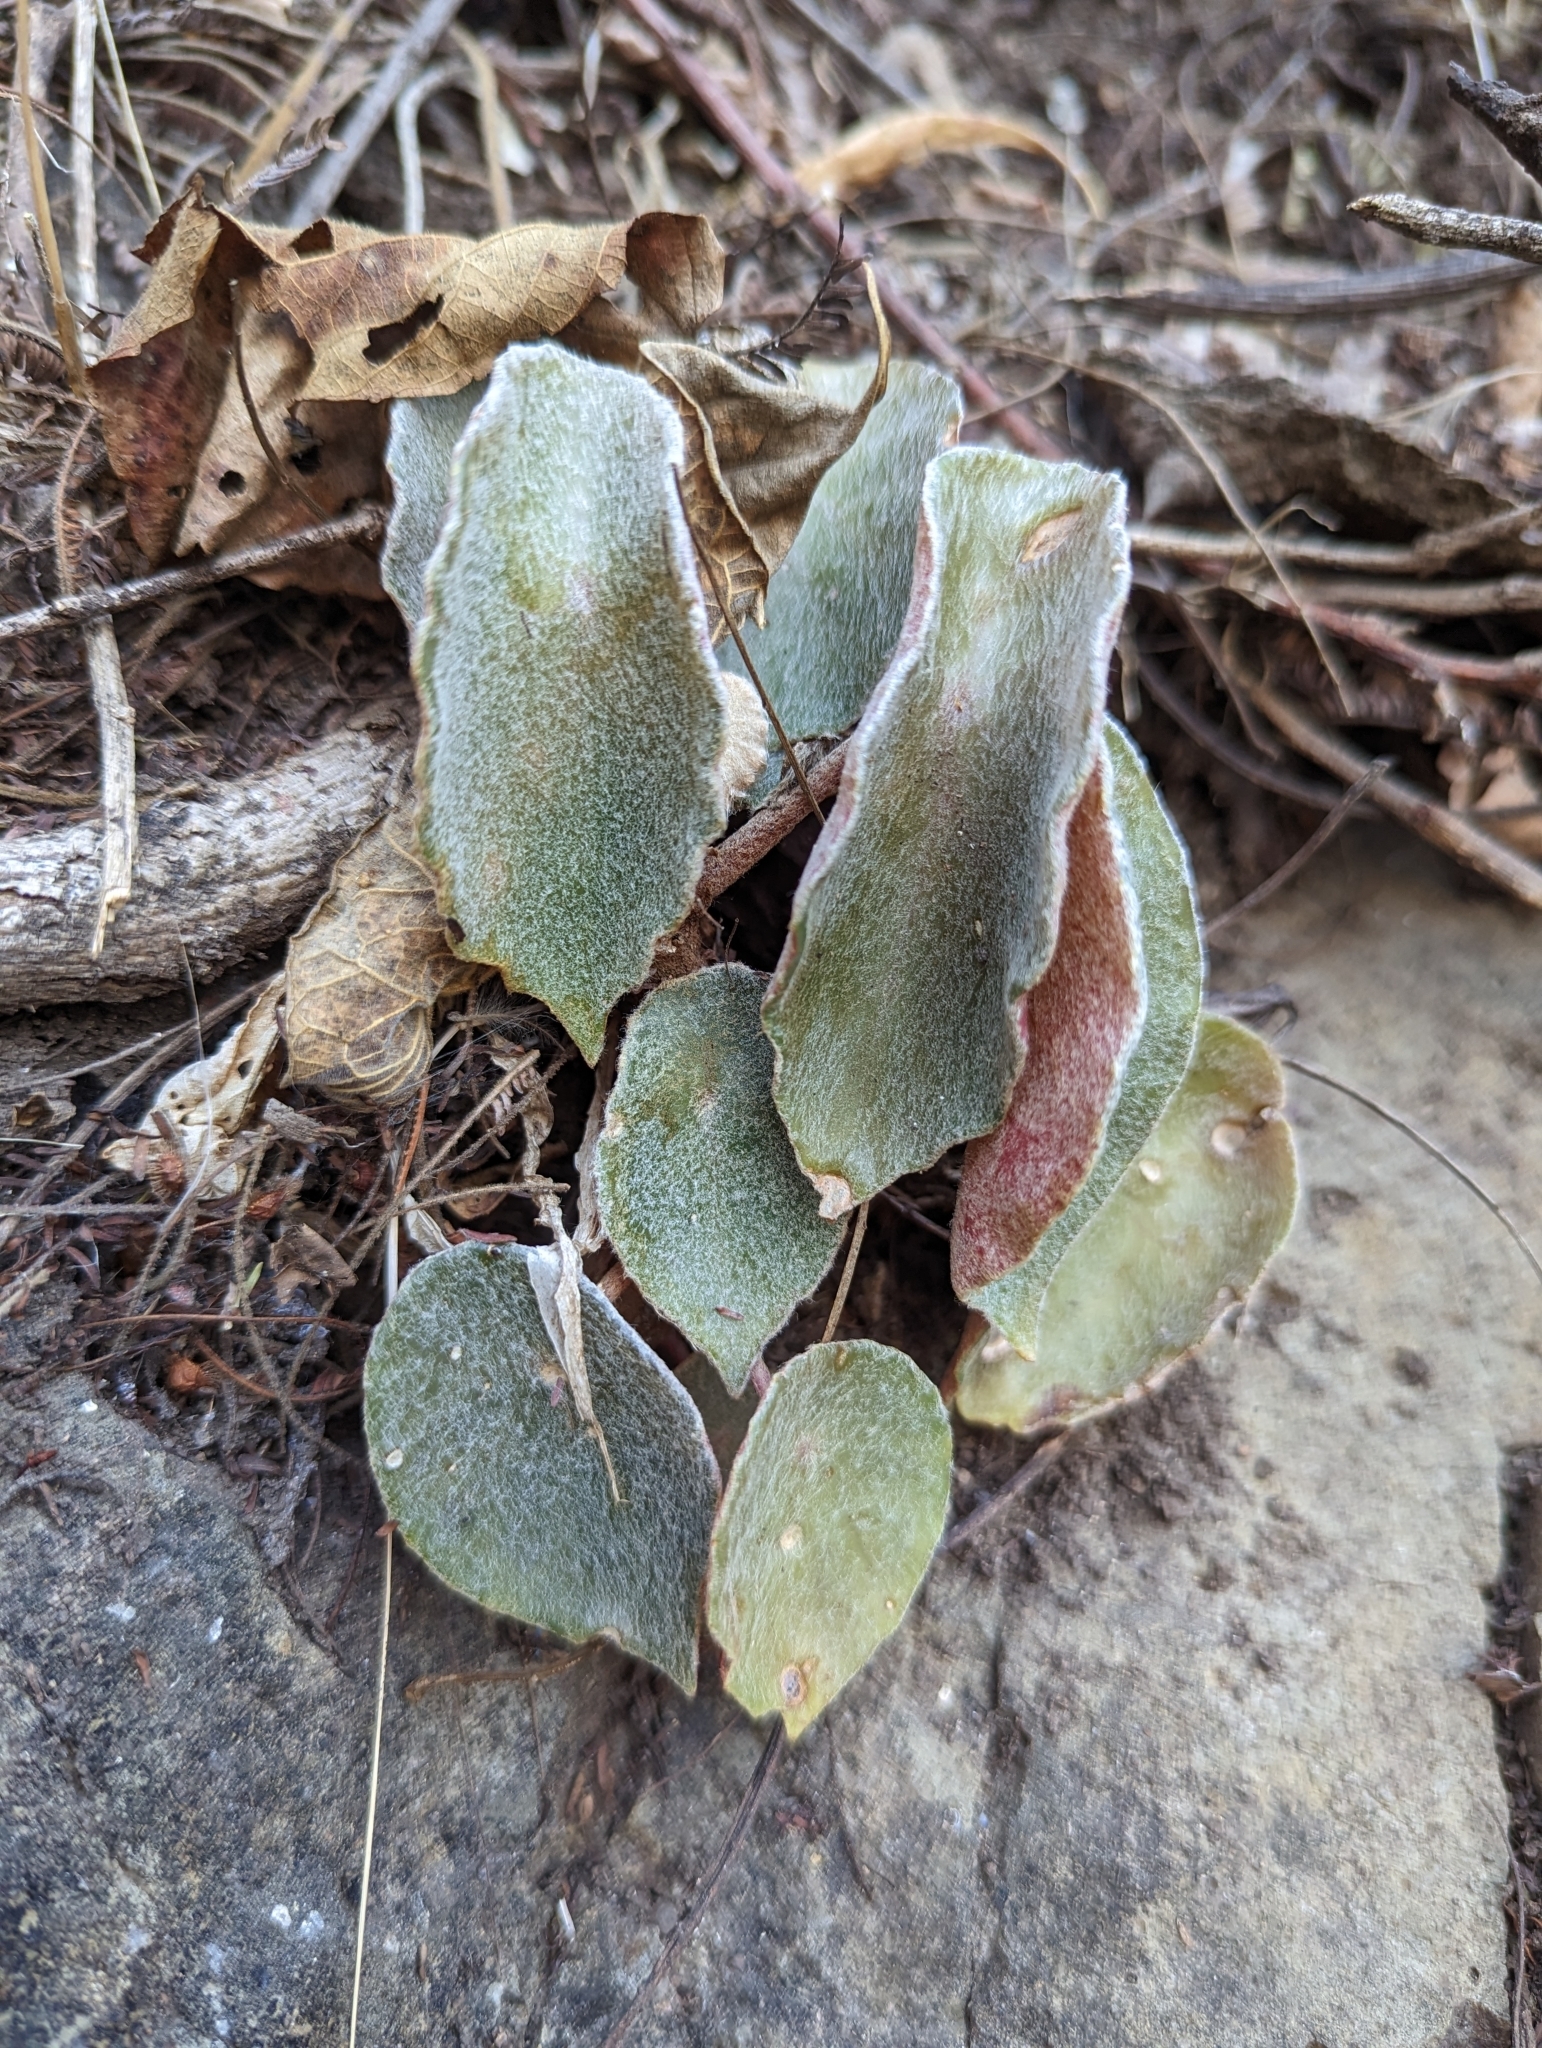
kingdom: Plantae
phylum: Tracheophyta
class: Magnoliopsida
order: Cucurbitales
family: Begoniaceae
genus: Begonia
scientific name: Begonia peltata
